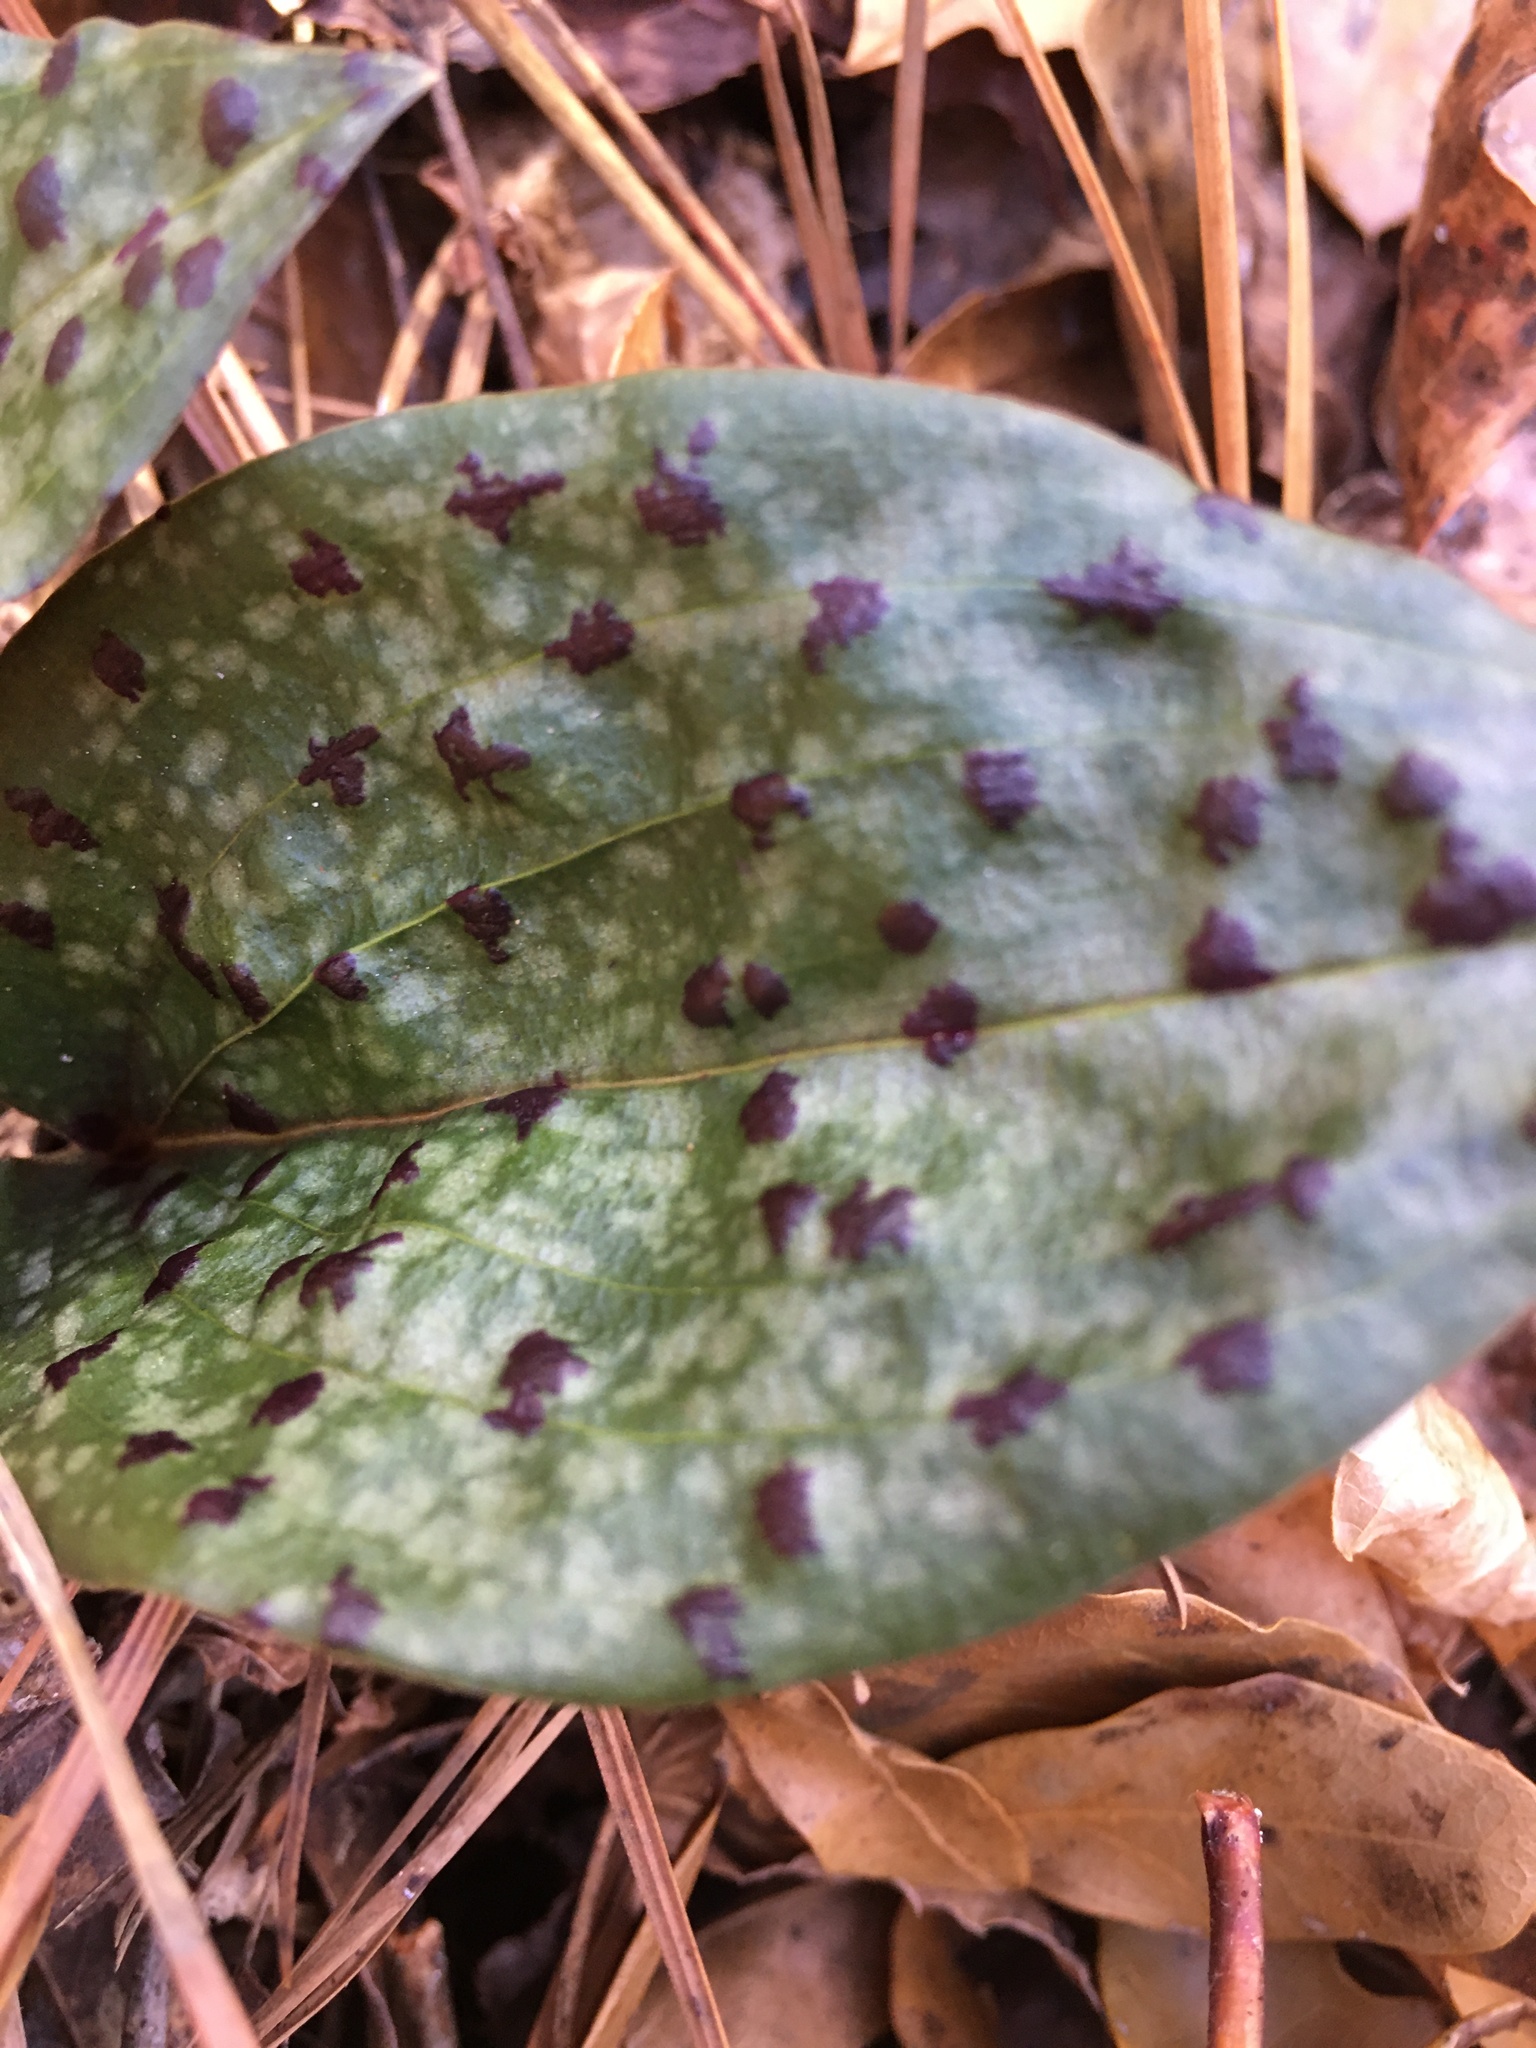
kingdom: Plantae
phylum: Tracheophyta
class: Liliopsida
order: Asparagales
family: Orchidaceae
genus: Tipularia
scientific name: Tipularia discolor
